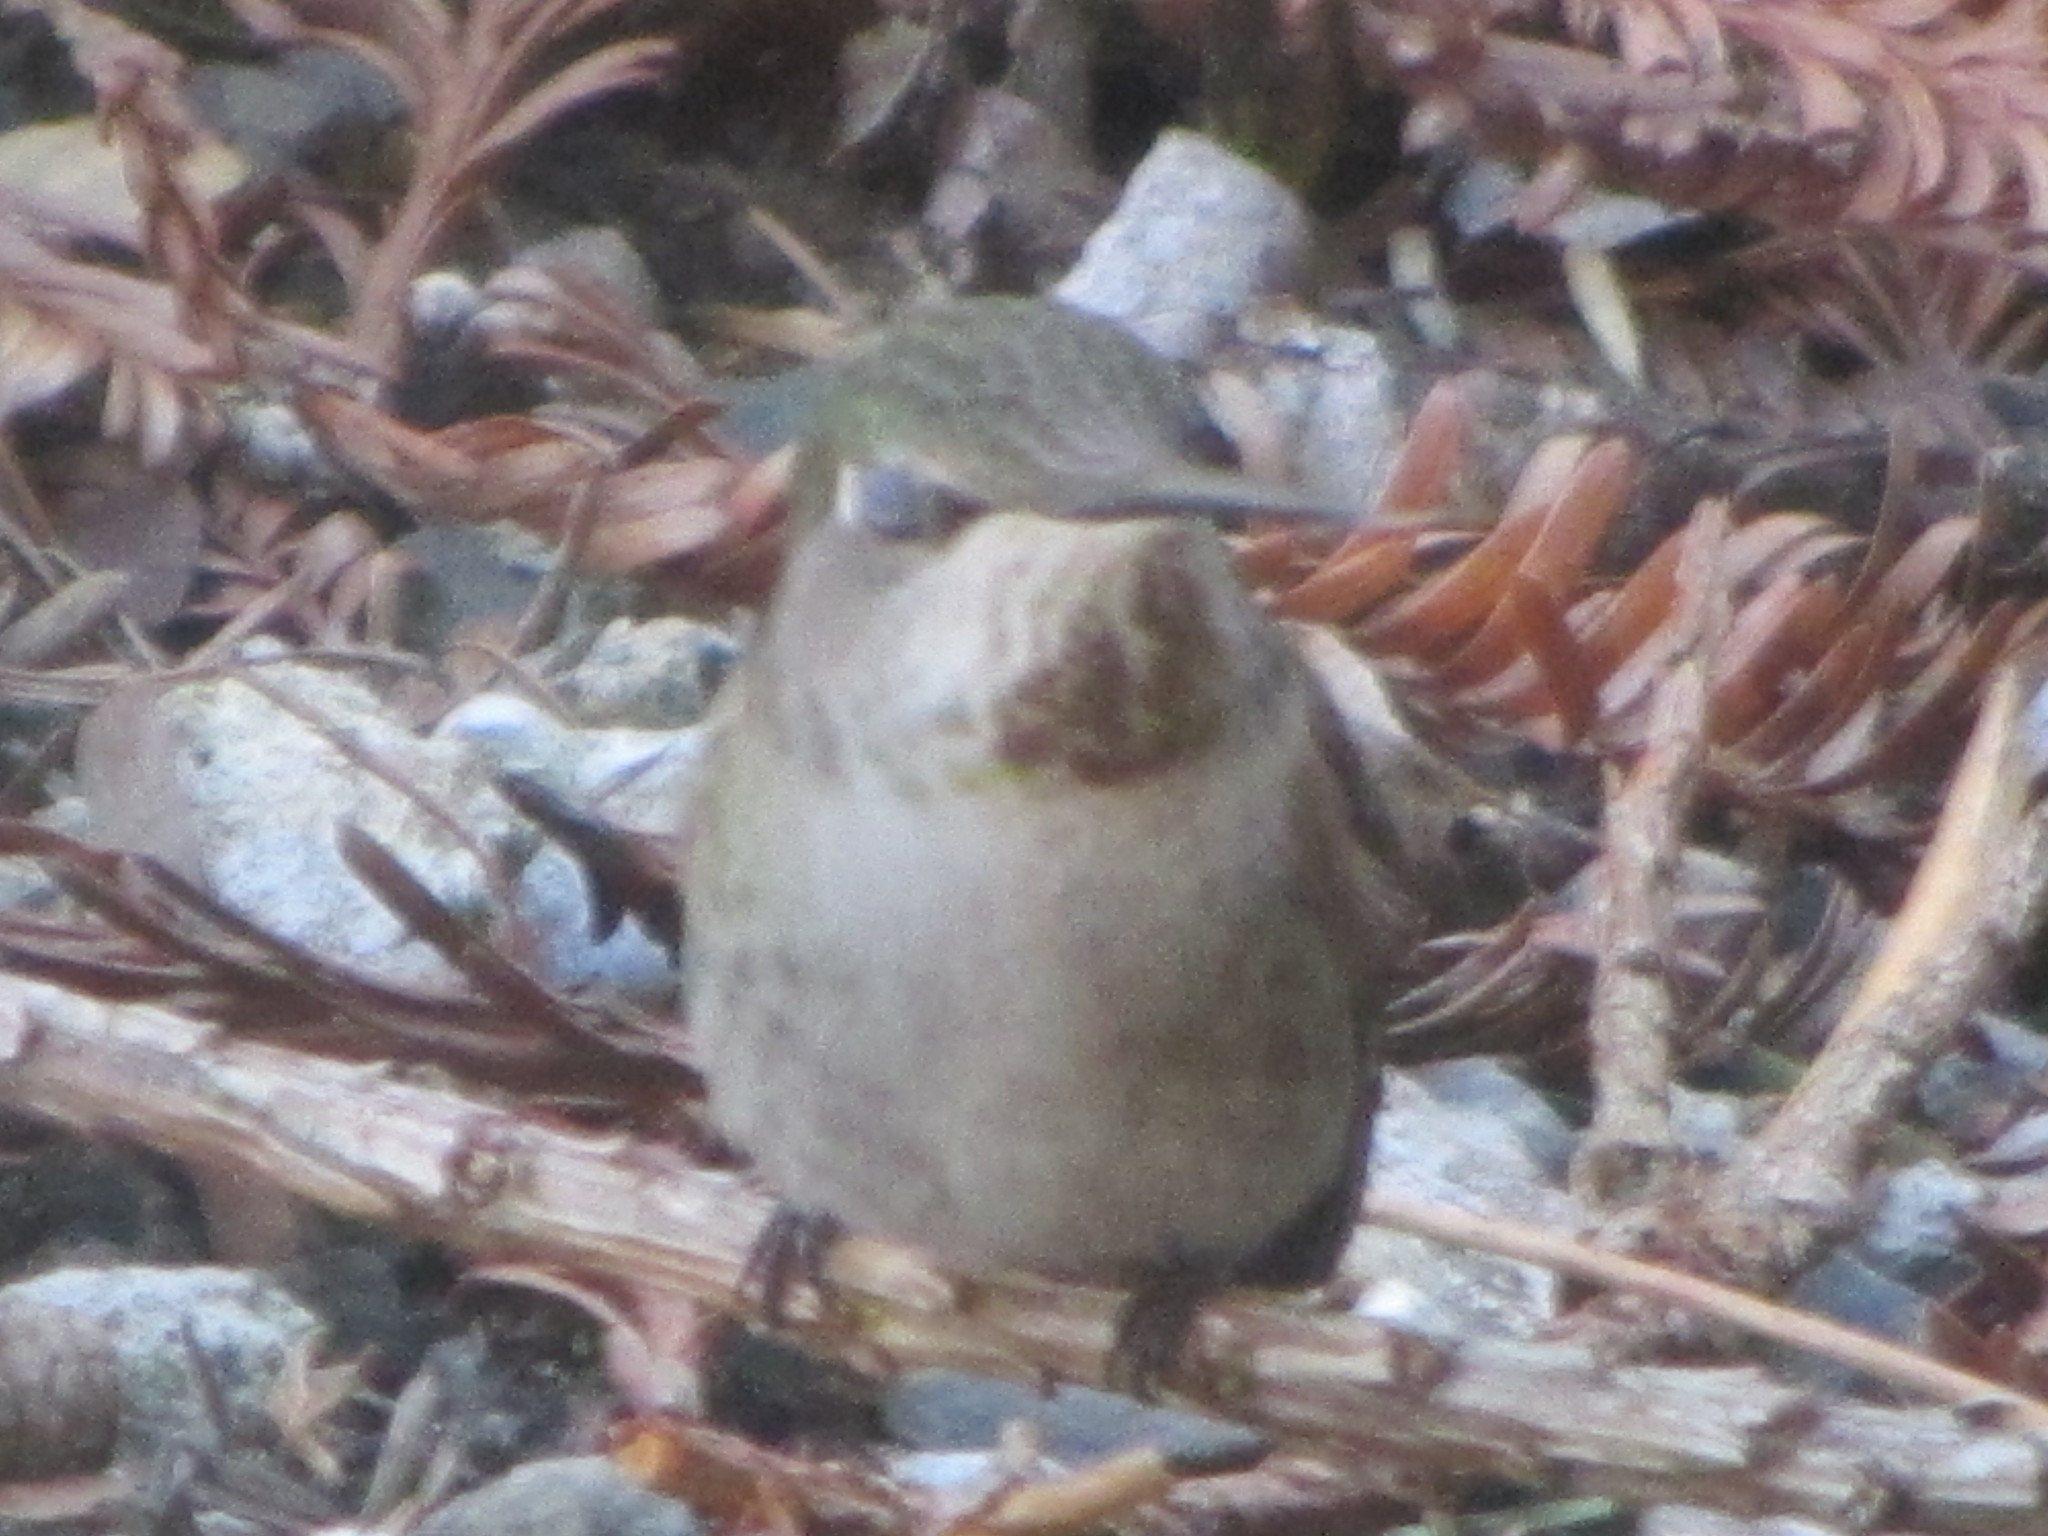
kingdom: Animalia
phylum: Chordata
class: Aves
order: Apodiformes
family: Trochilidae
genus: Calypte
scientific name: Calypte anna
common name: Anna's hummingbird
